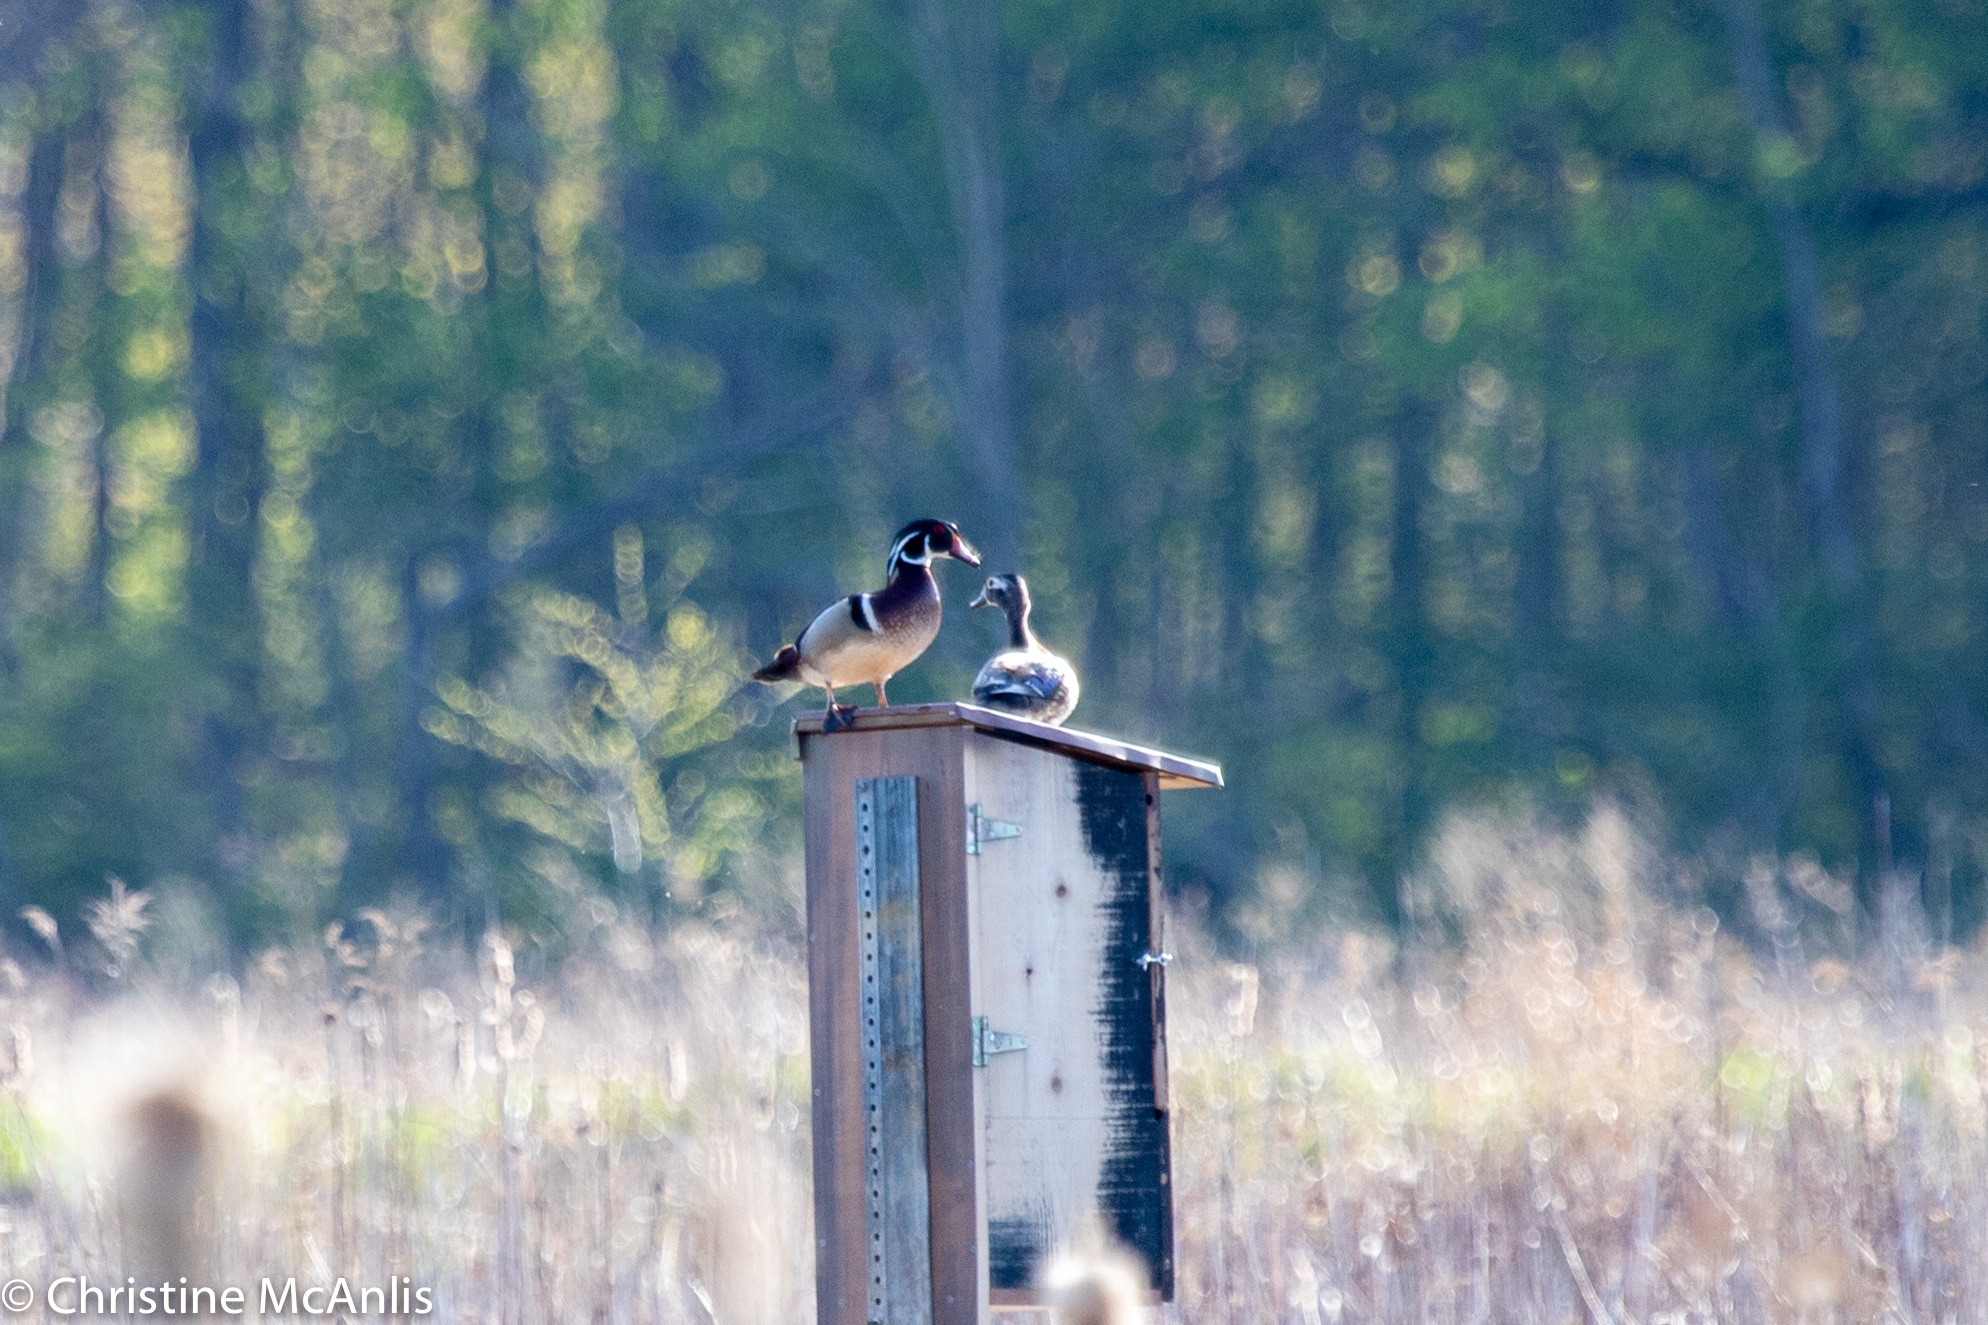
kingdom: Animalia
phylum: Chordata
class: Aves
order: Anseriformes
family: Anatidae
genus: Aix
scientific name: Aix sponsa
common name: Wood duck
